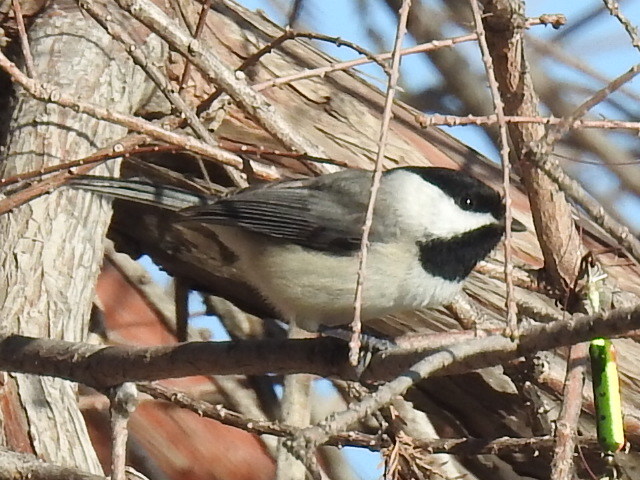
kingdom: Animalia
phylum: Chordata
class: Aves
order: Passeriformes
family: Paridae
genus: Poecile
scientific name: Poecile carolinensis
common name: Carolina chickadee
